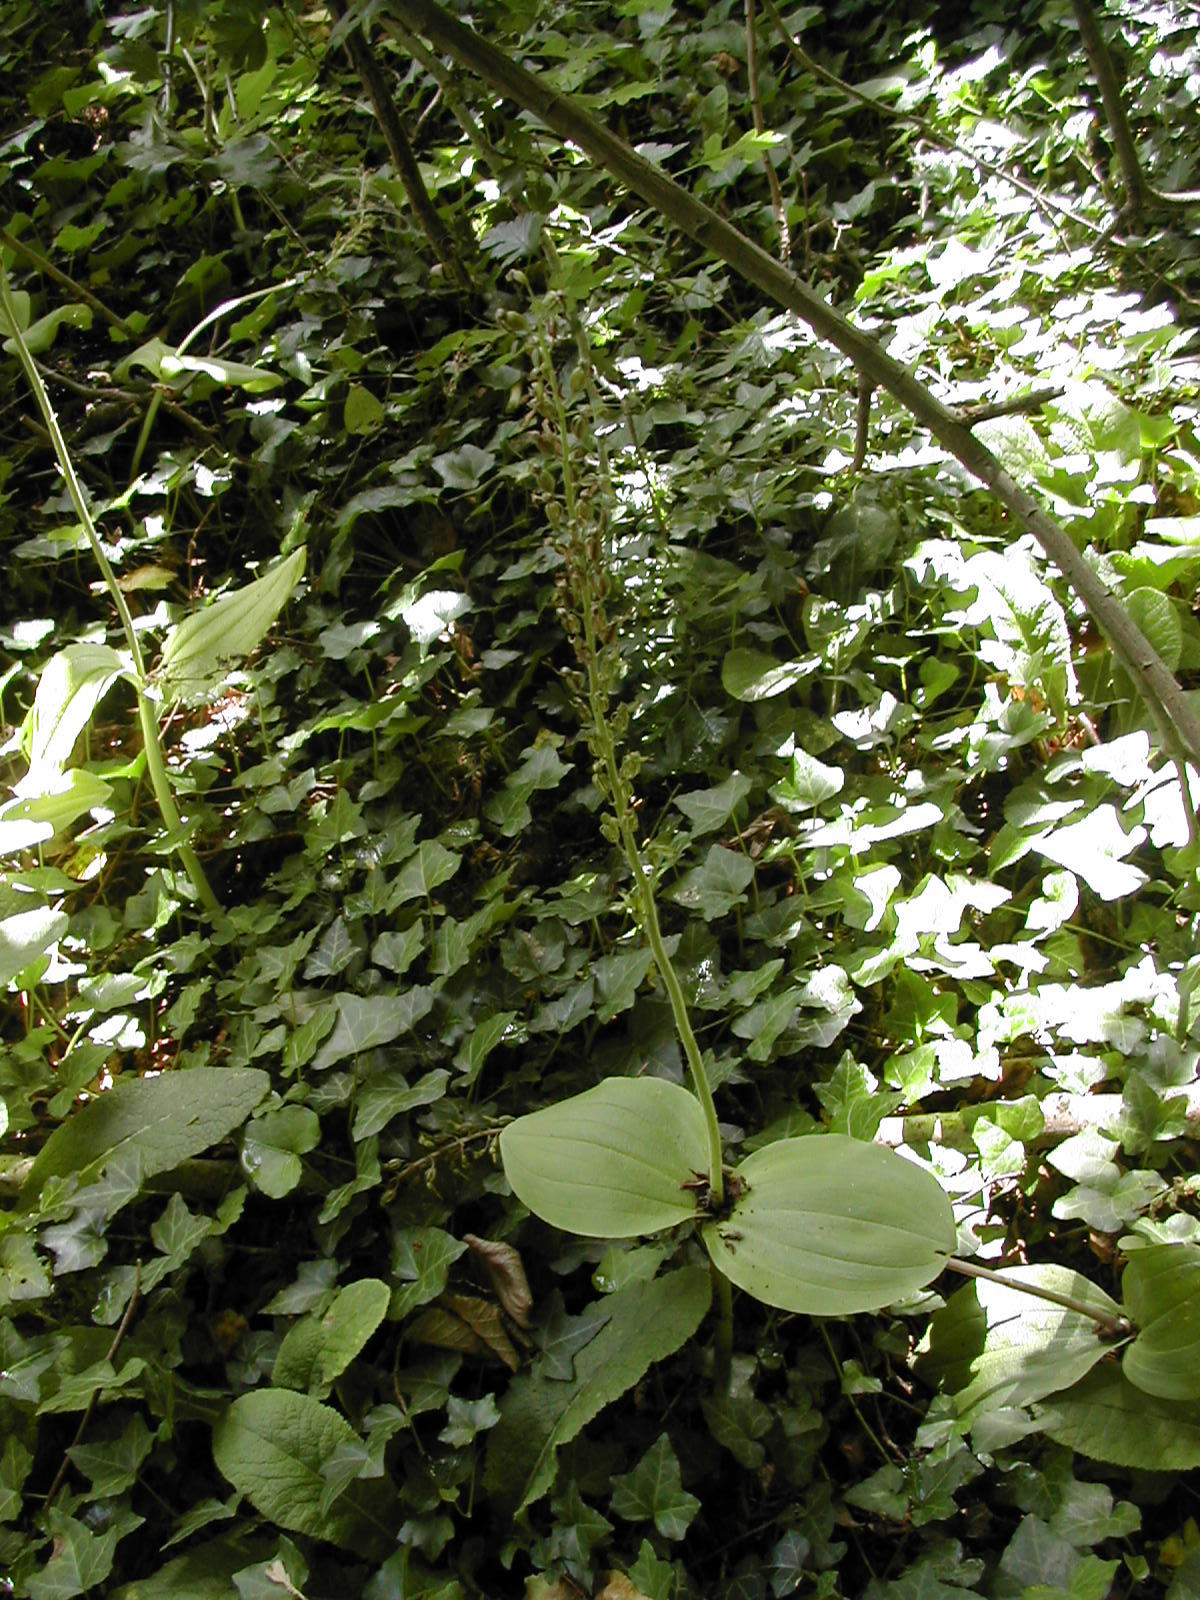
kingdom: Plantae
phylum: Tracheophyta
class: Liliopsida
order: Asparagales
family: Orchidaceae
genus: Neottia
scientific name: Neottia ovata
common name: Common twayblade
